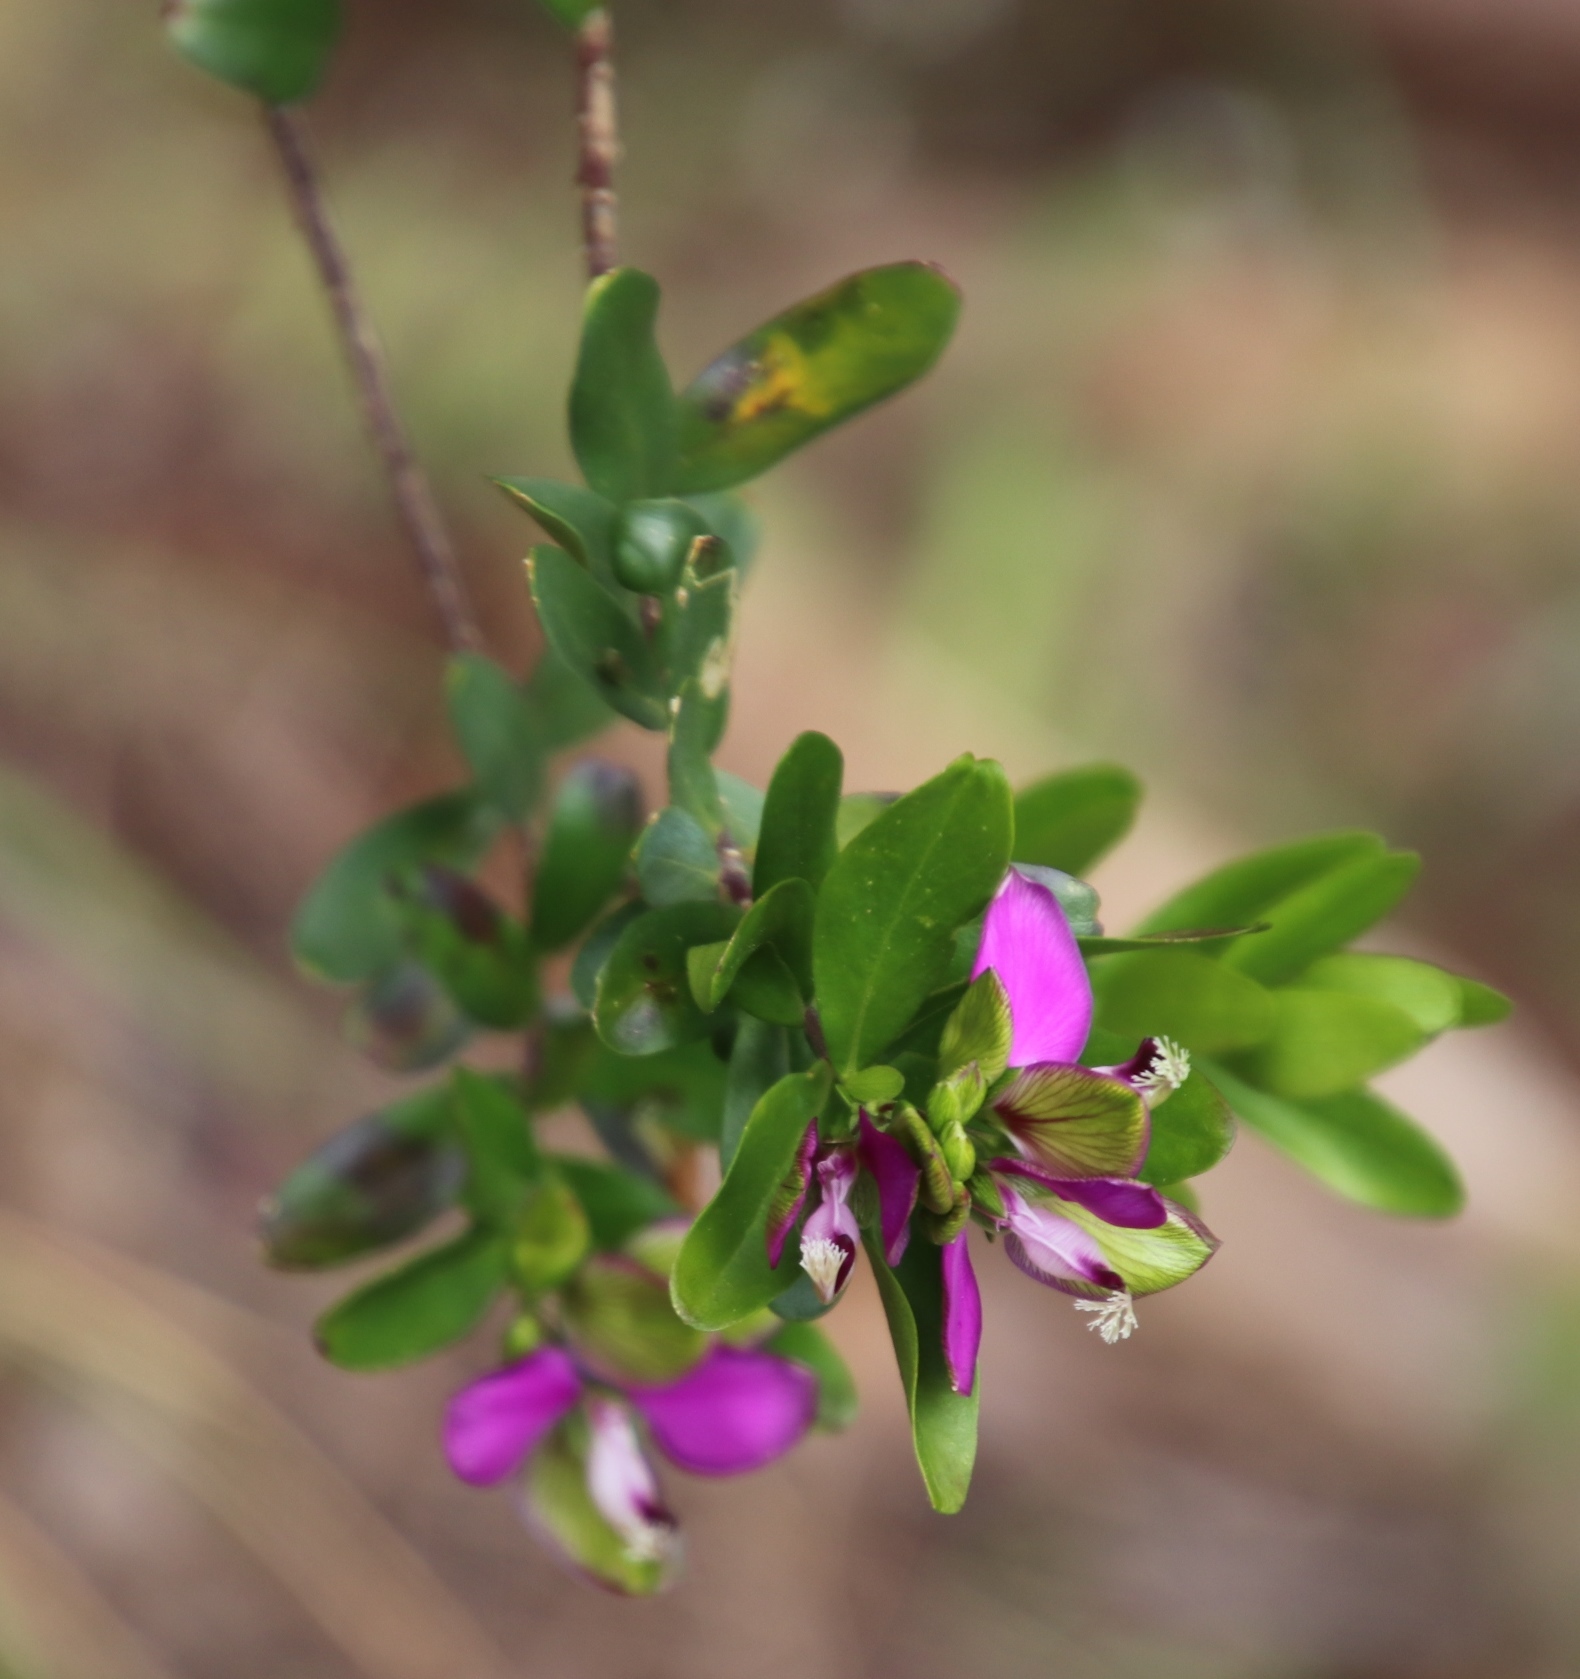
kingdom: Plantae
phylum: Tracheophyta
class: Magnoliopsida
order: Fabales
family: Polygalaceae
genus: Polygala
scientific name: Polygala myrtifolia
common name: Myrtle-leaf milkwort
